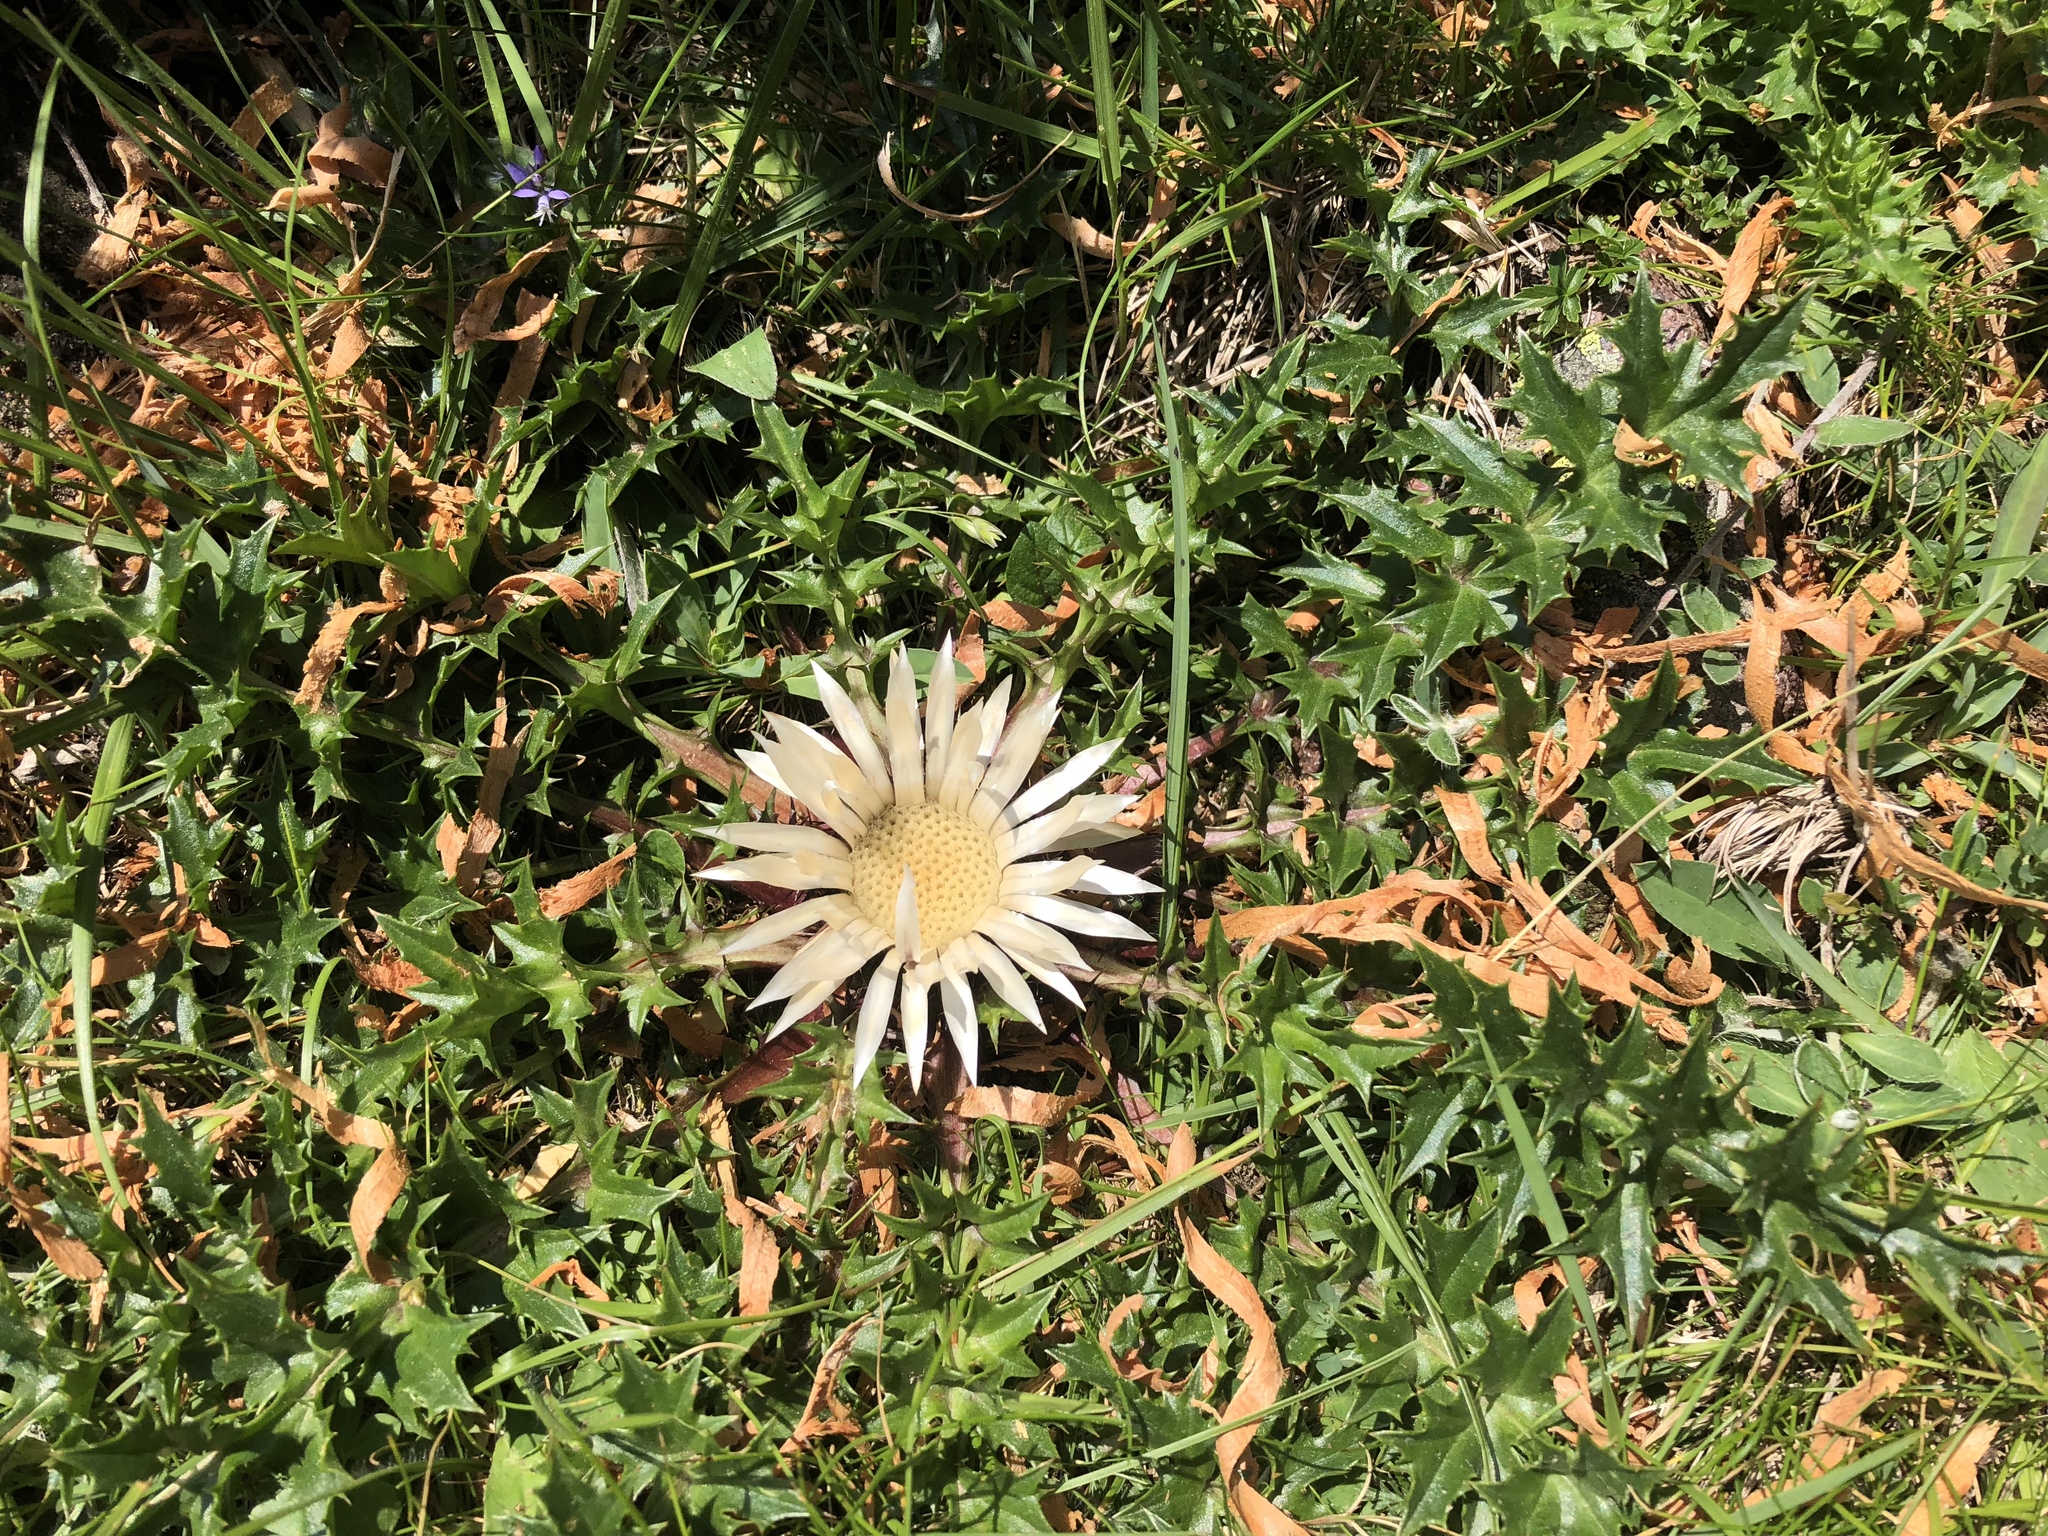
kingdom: Plantae
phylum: Tracheophyta
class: Magnoliopsida
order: Asterales
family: Asteraceae
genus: Carlina
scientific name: Carlina acaulis
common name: Stemless carline thistle
